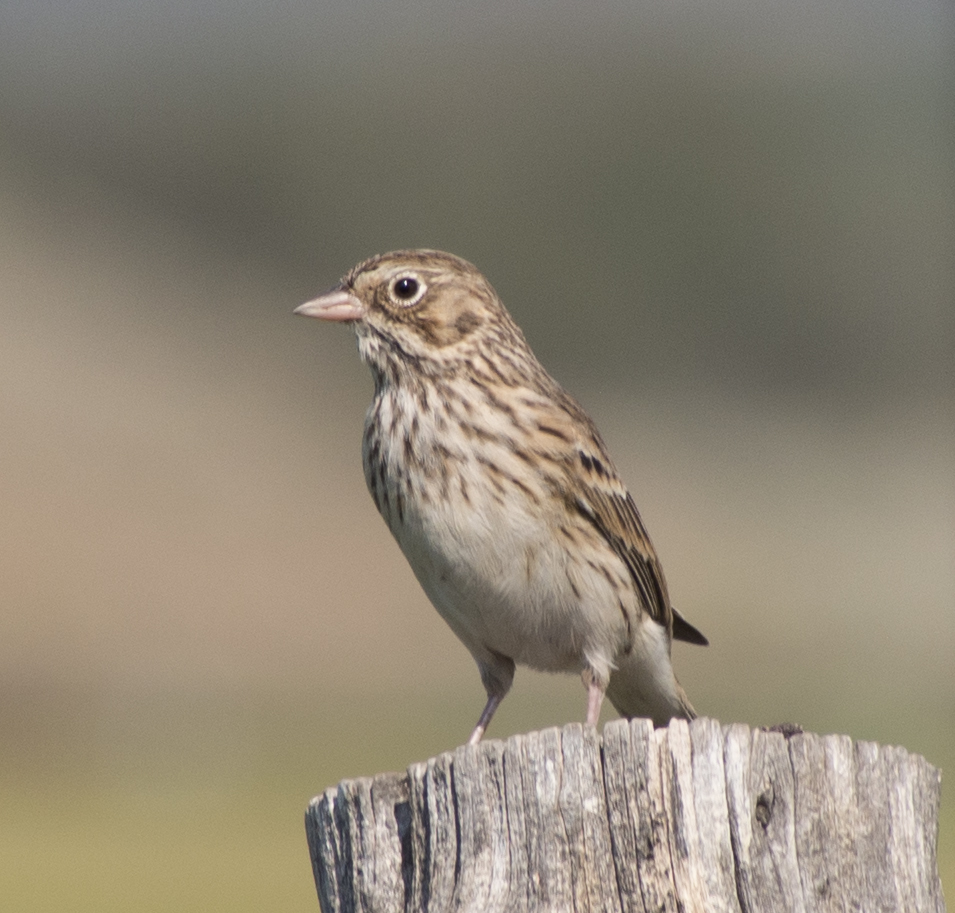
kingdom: Animalia
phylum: Chordata
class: Aves
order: Passeriformes
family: Passerellidae
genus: Pooecetes
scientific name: Pooecetes gramineus
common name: Vesper sparrow
